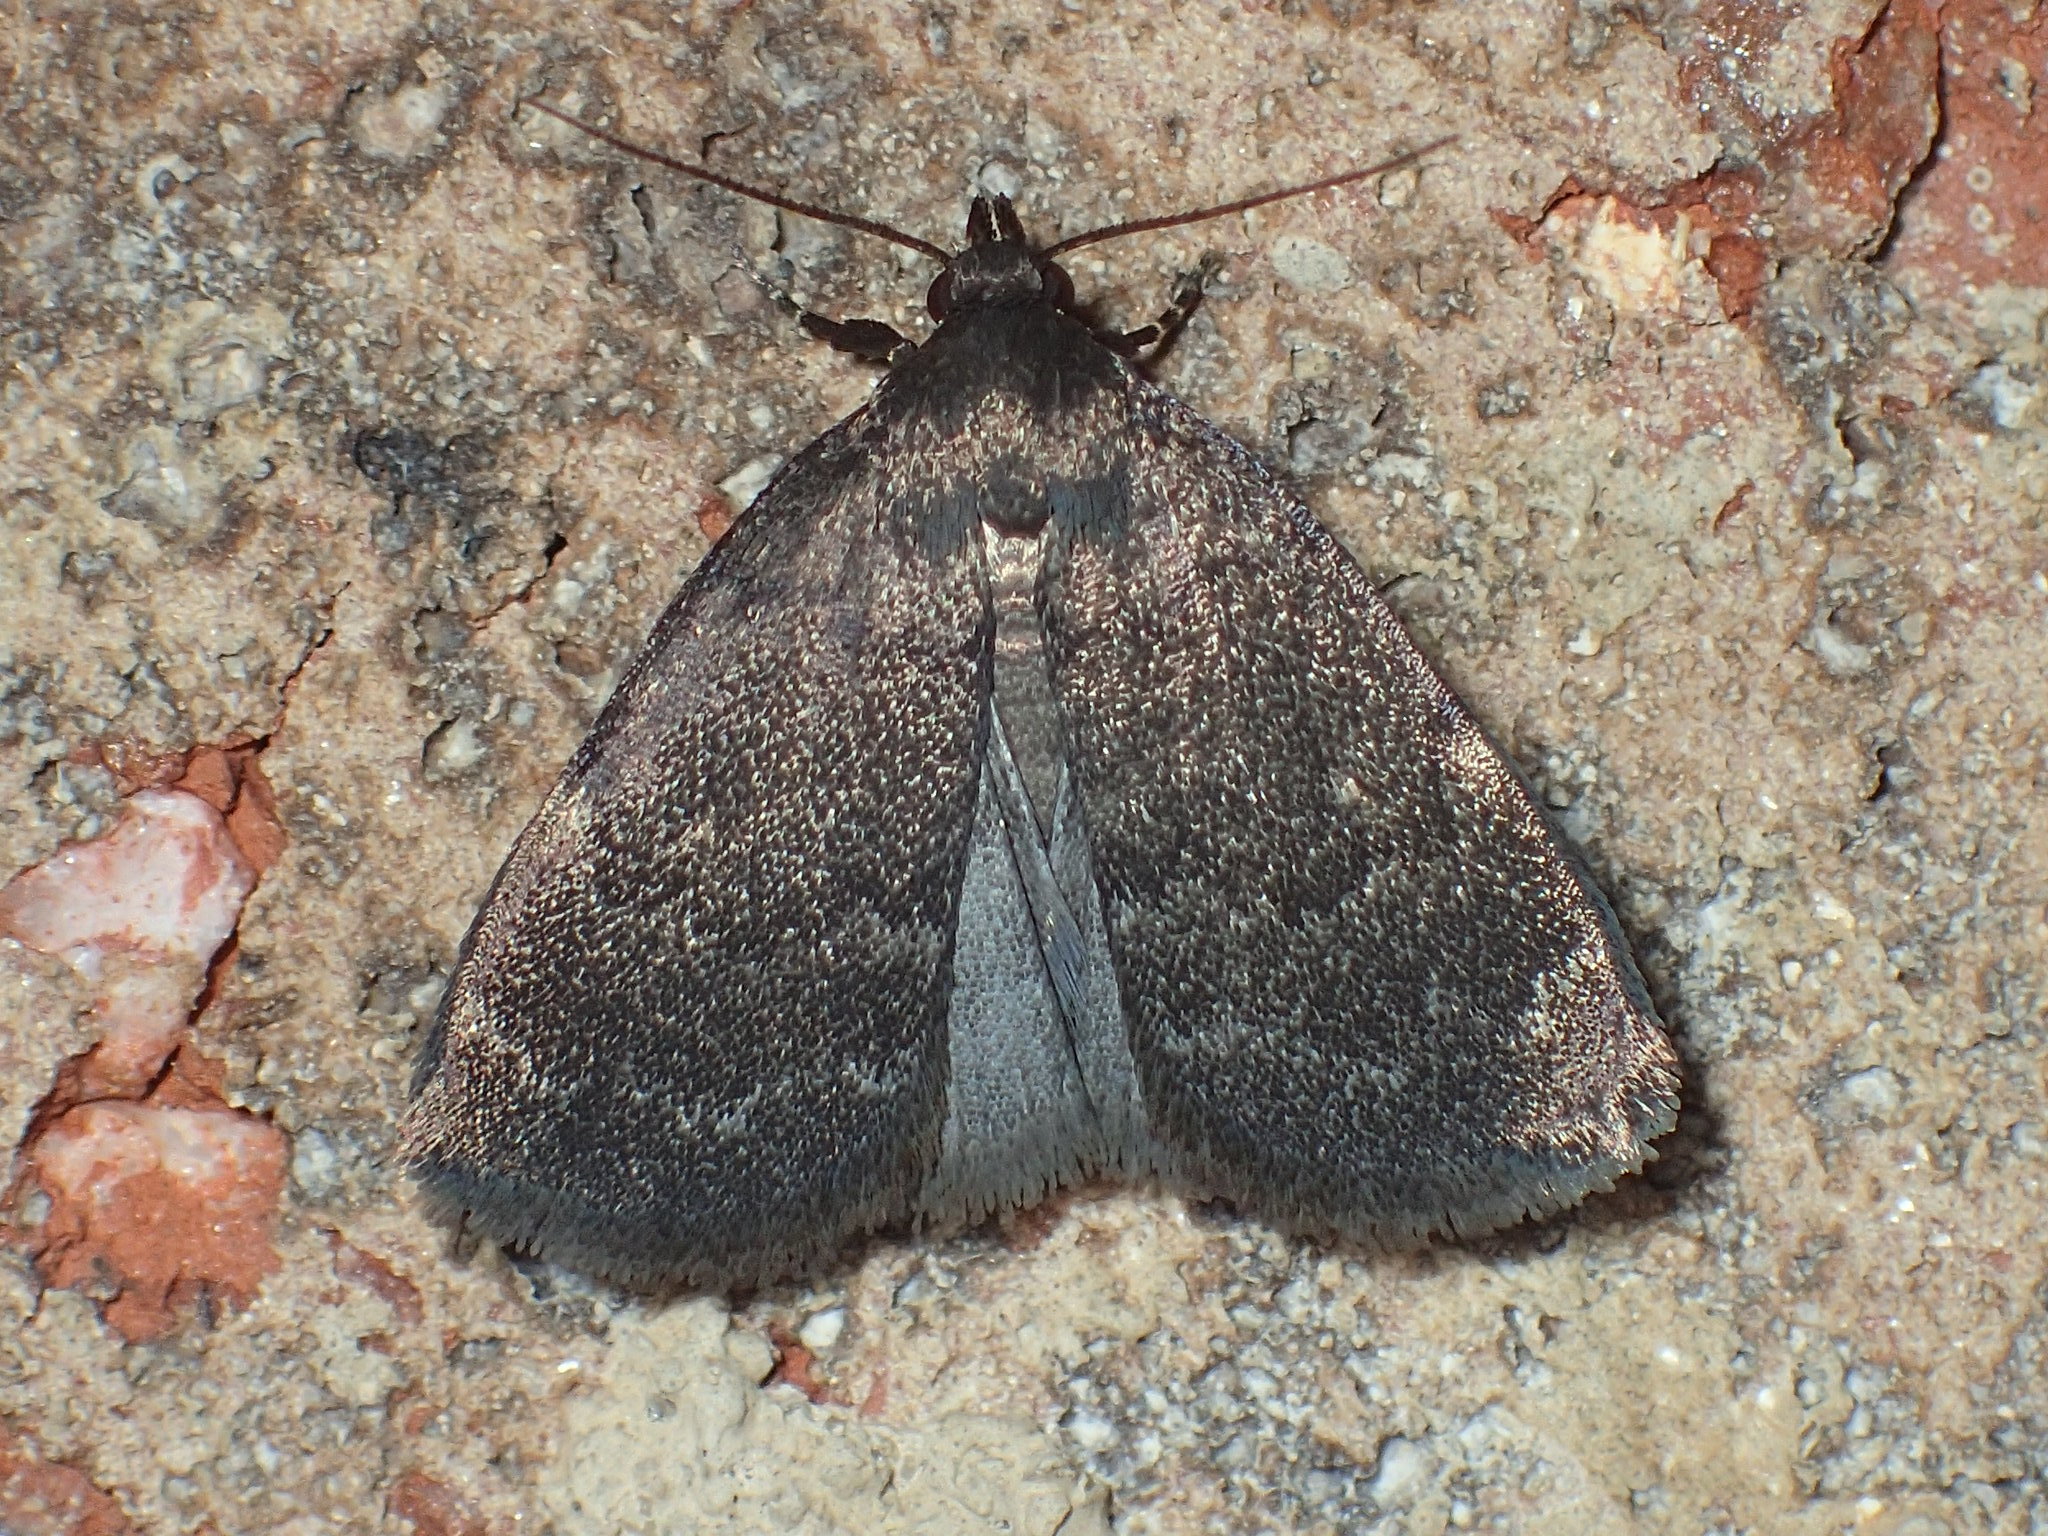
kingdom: Animalia
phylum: Arthropoda
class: Insecta
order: Lepidoptera
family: Erebidae
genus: Idia
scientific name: Idia rotundalis
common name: Rotund idia moth
